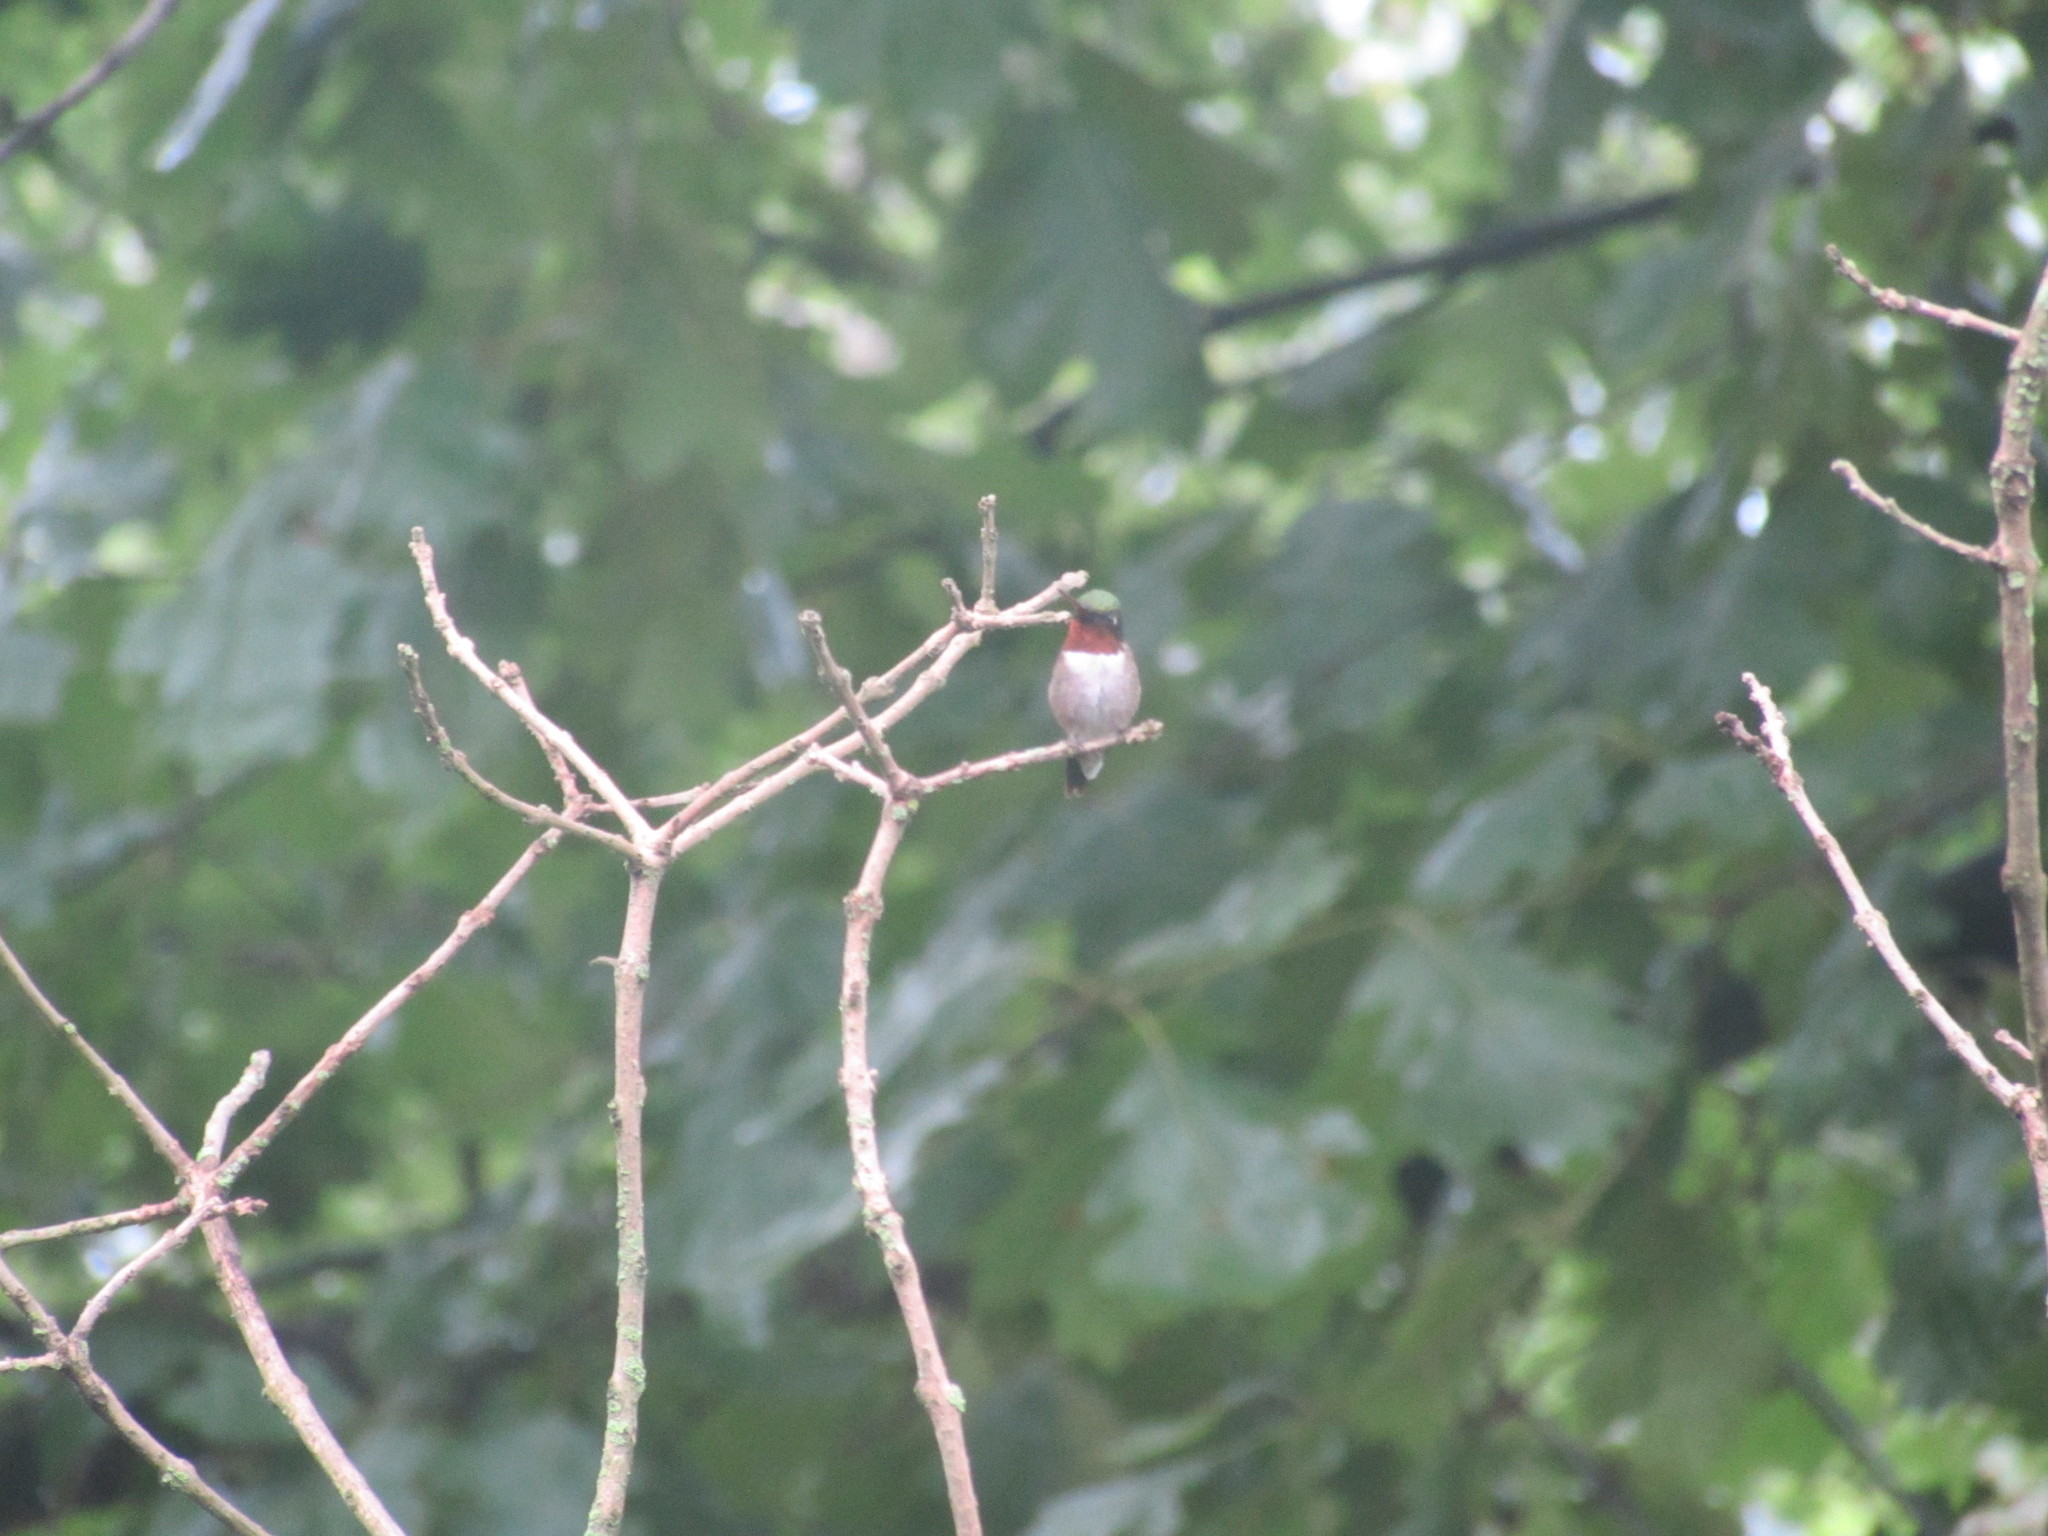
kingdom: Animalia
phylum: Chordata
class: Aves
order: Apodiformes
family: Trochilidae
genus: Archilochus
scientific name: Archilochus colubris
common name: Ruby-throated hummingbird
